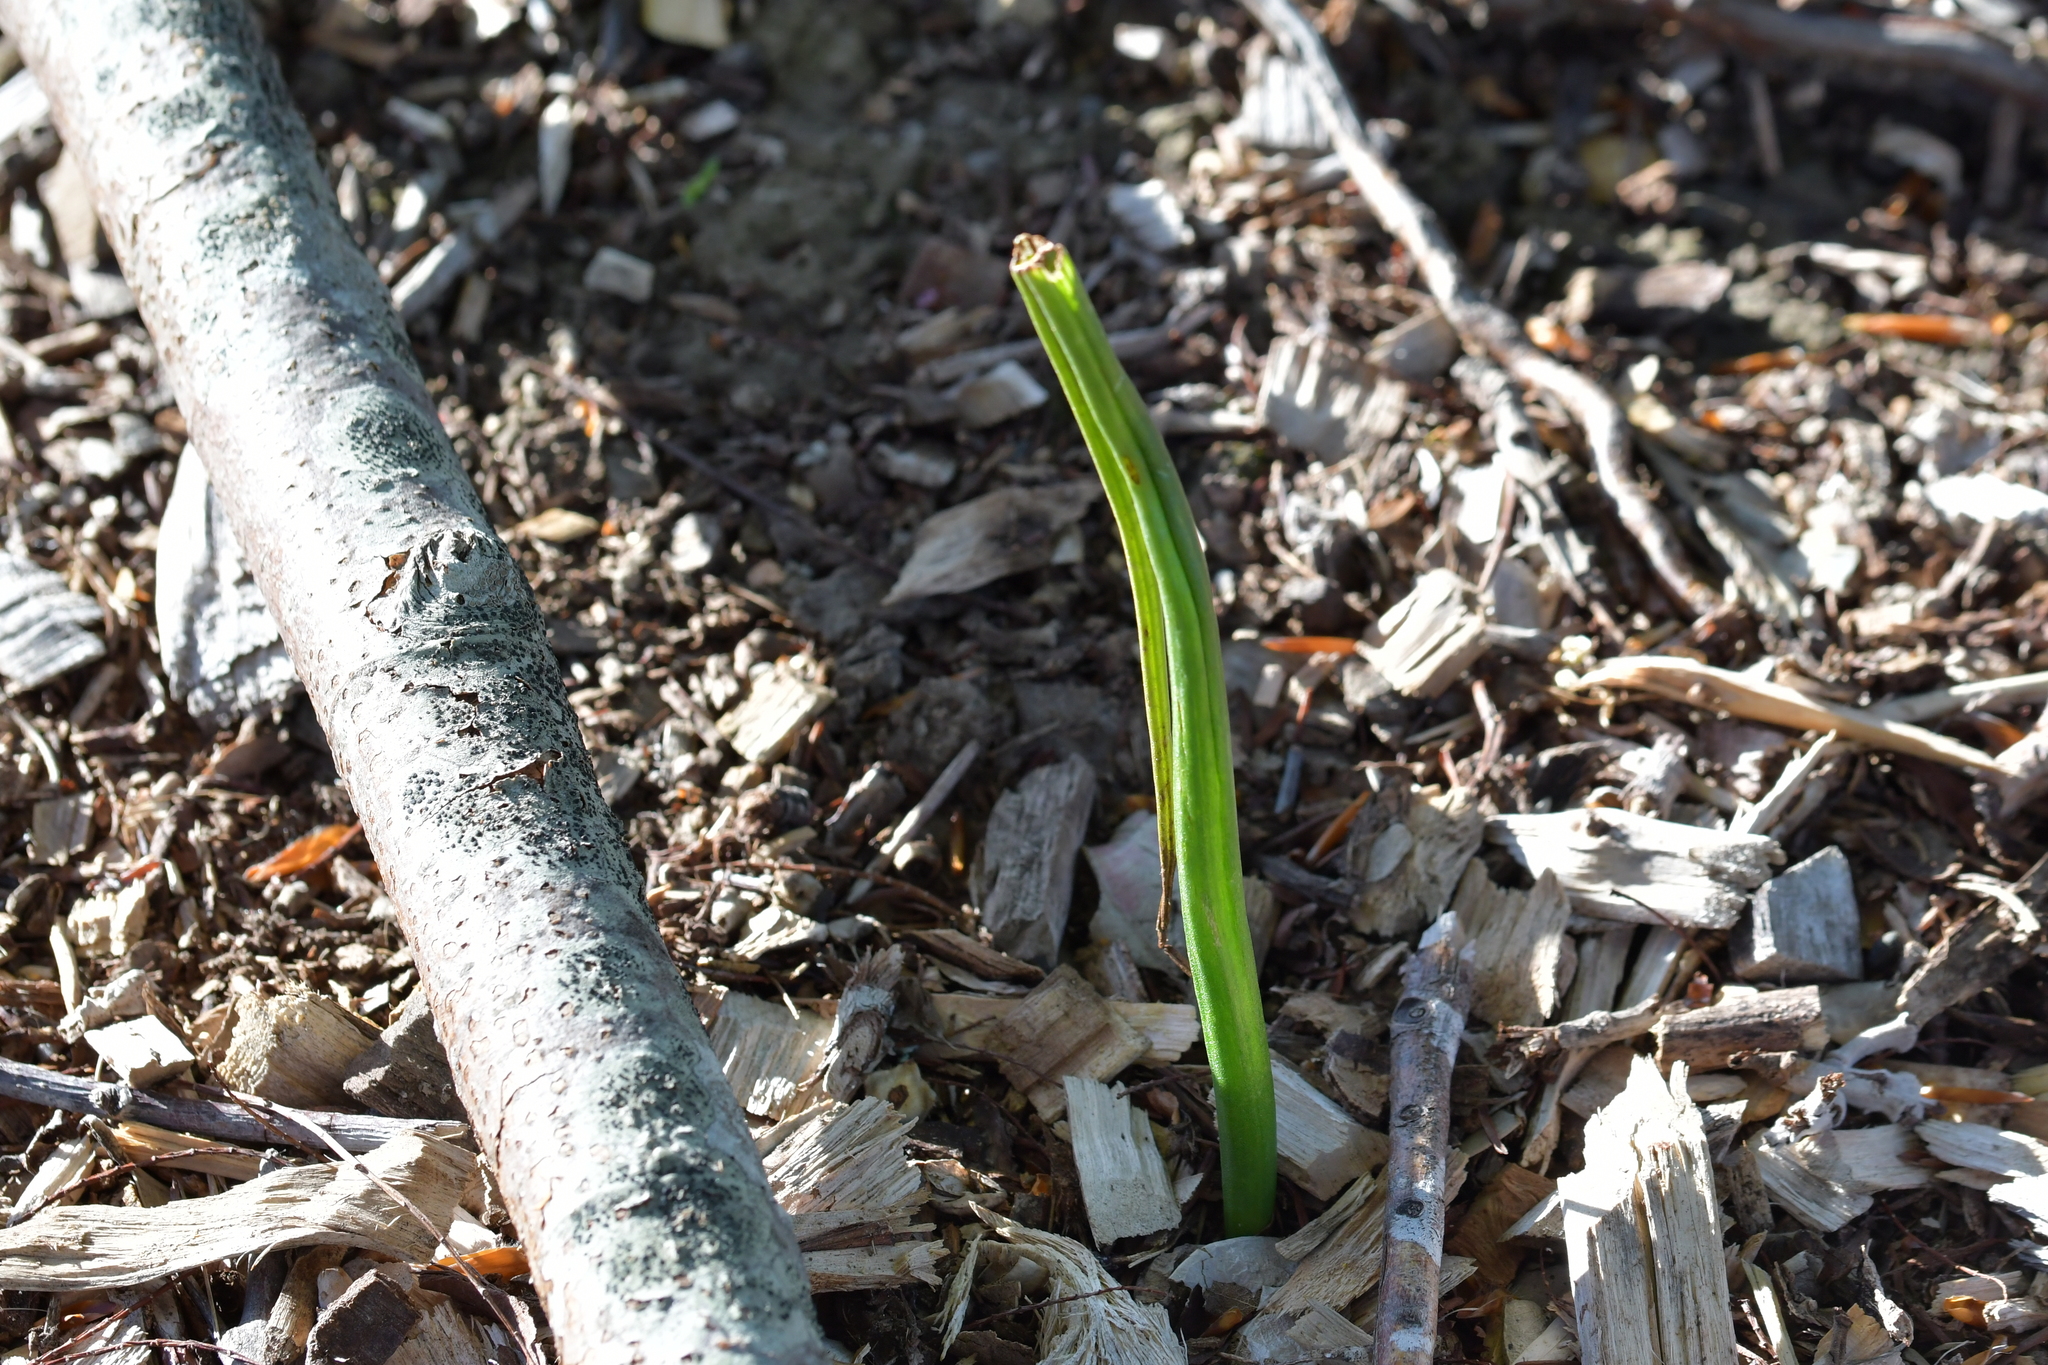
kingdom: Plantae
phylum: Tracheophyta
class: Liliopsida
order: Asparagales
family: Orchidaceae
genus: Microtis
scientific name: Microtis unifolia
